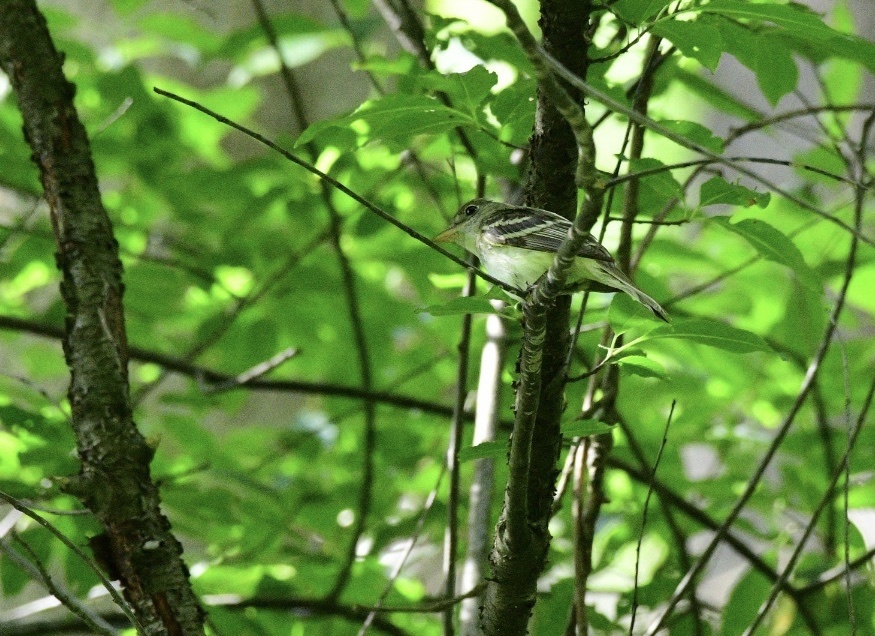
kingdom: Animalia
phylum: Chordata
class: Aves
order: Passeriformes
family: Tyrannidae
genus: Empidonax
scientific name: Empidonax virescens
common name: Acadian flycatcher
